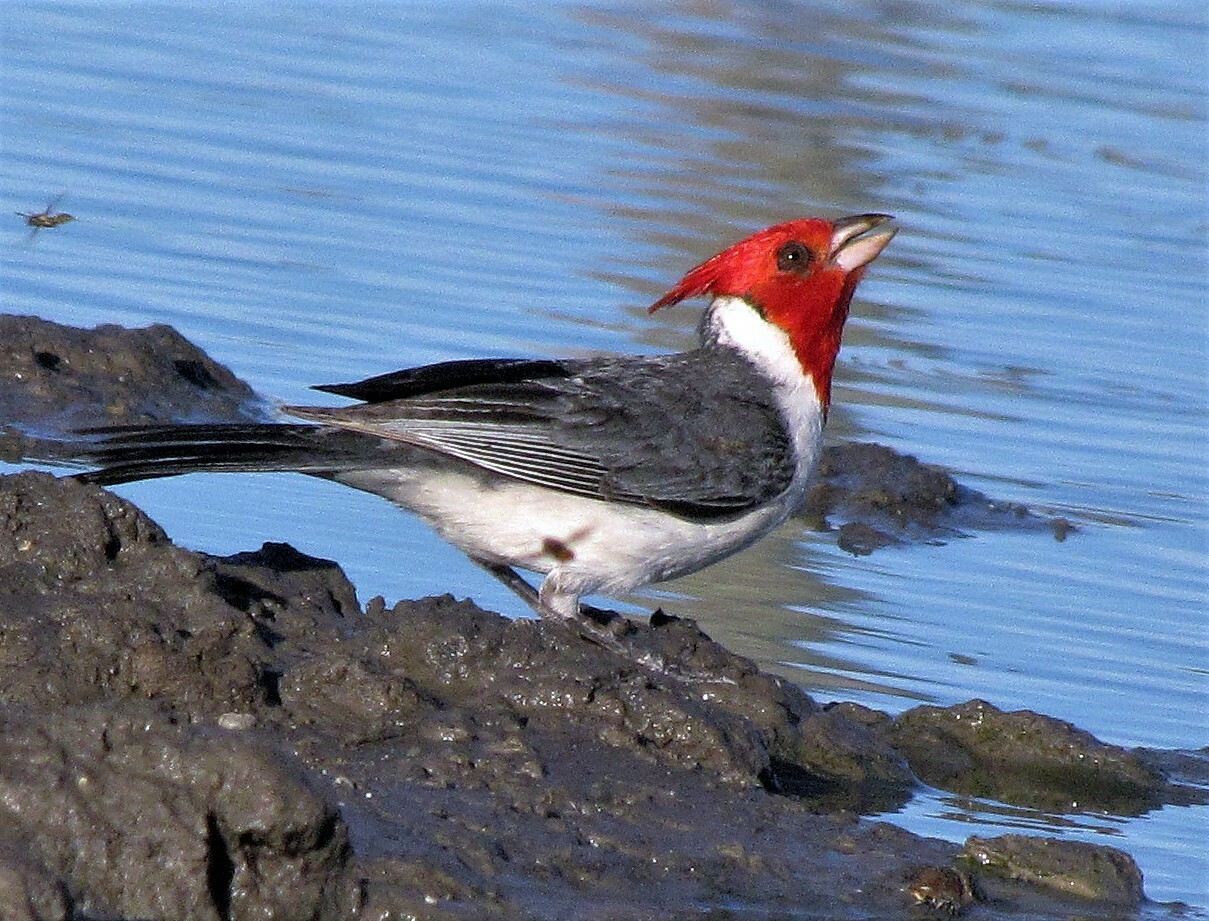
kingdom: Animalia
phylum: Chordata
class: Aves
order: Passeriformes
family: Thraupidae
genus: Paroaria
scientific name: Paroaria coronata
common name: Red-crested cardinal
